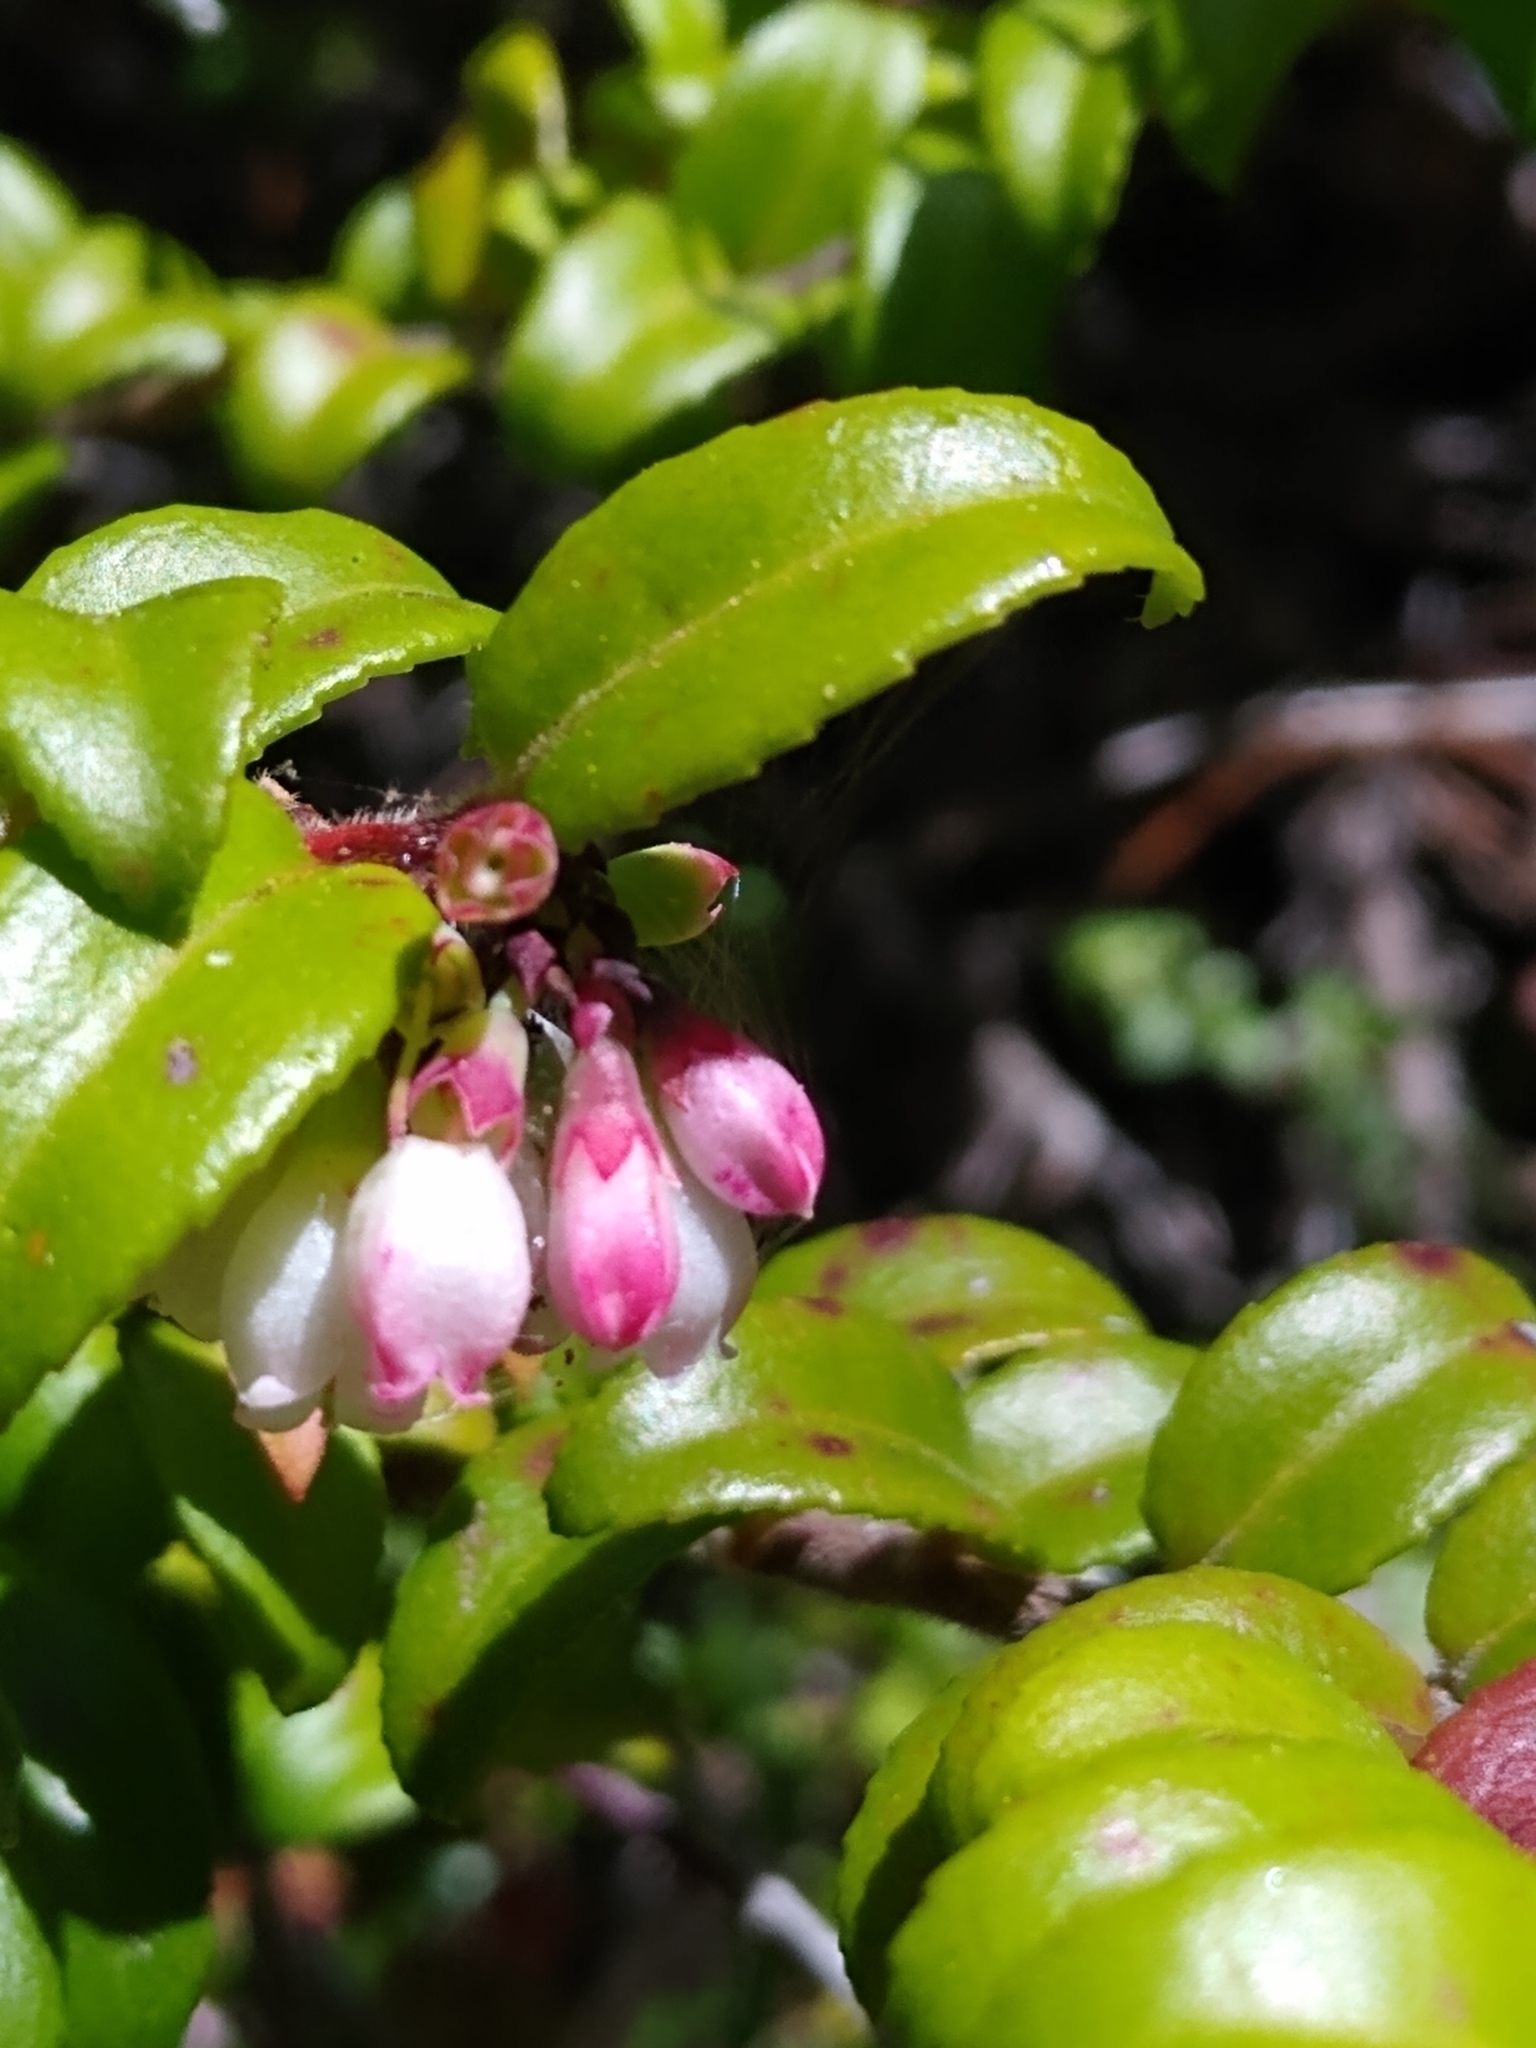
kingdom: Plantae
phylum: Tracheophyta
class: Magnoliopsida
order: Ericales
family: Ericaceae
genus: Vaccinium
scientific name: Vaccinium ovatum
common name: California-huckleberry
